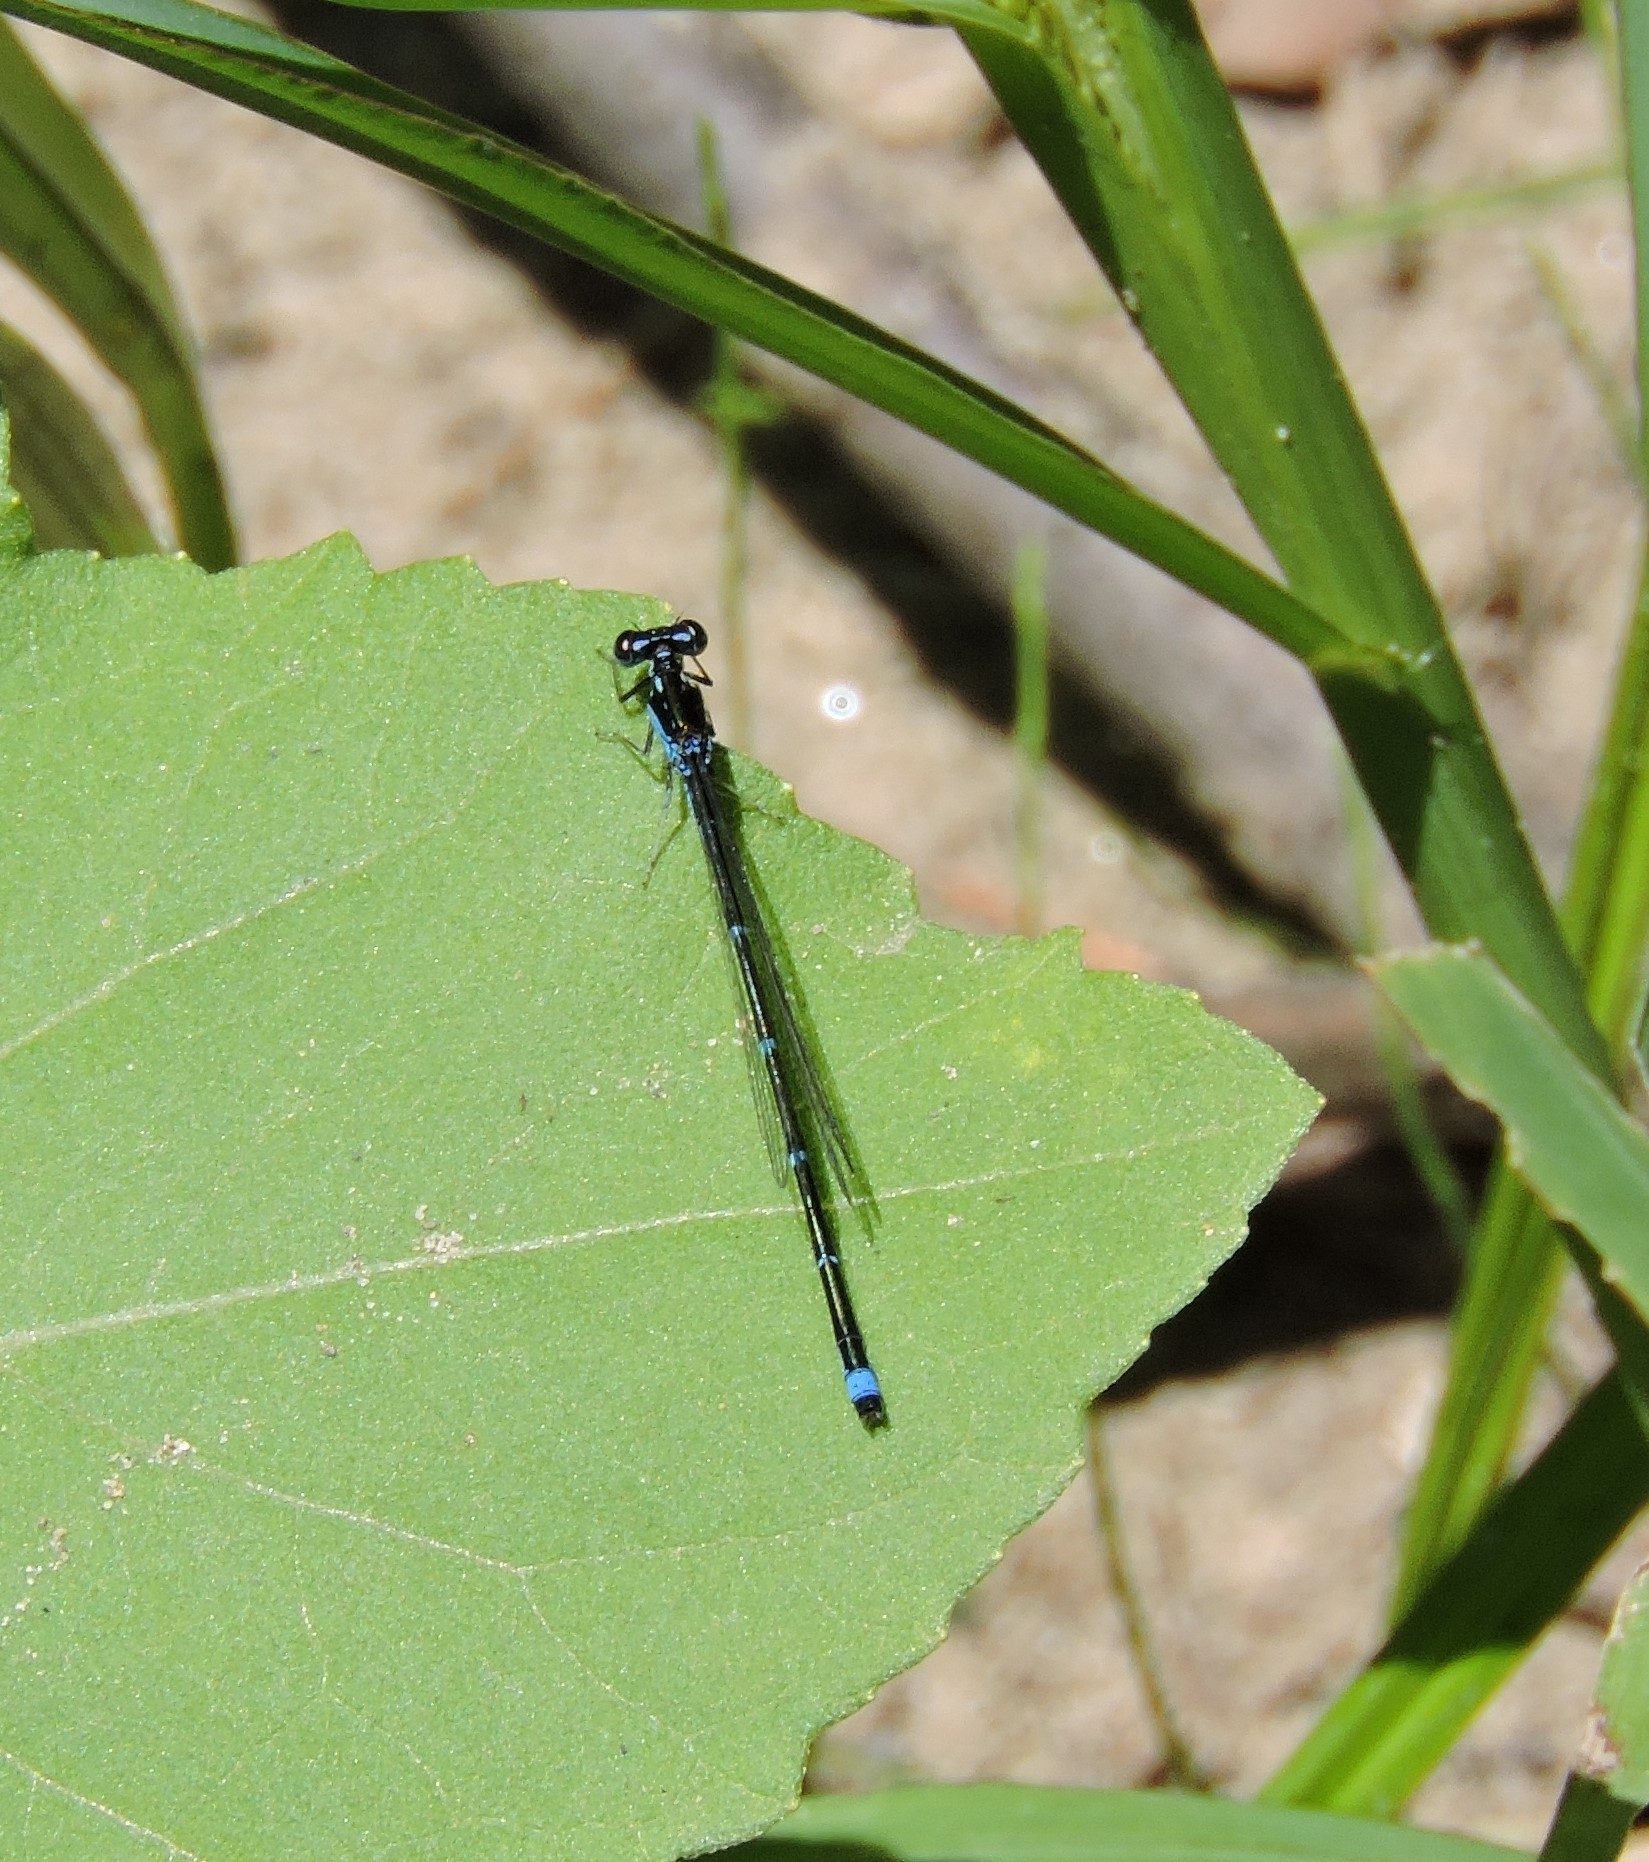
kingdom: Animalia
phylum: Arthropoda
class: Insecta
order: Odonata
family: Coenagrionidae
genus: Enallagma
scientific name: Enallagma exsulans
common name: Stream bluet
